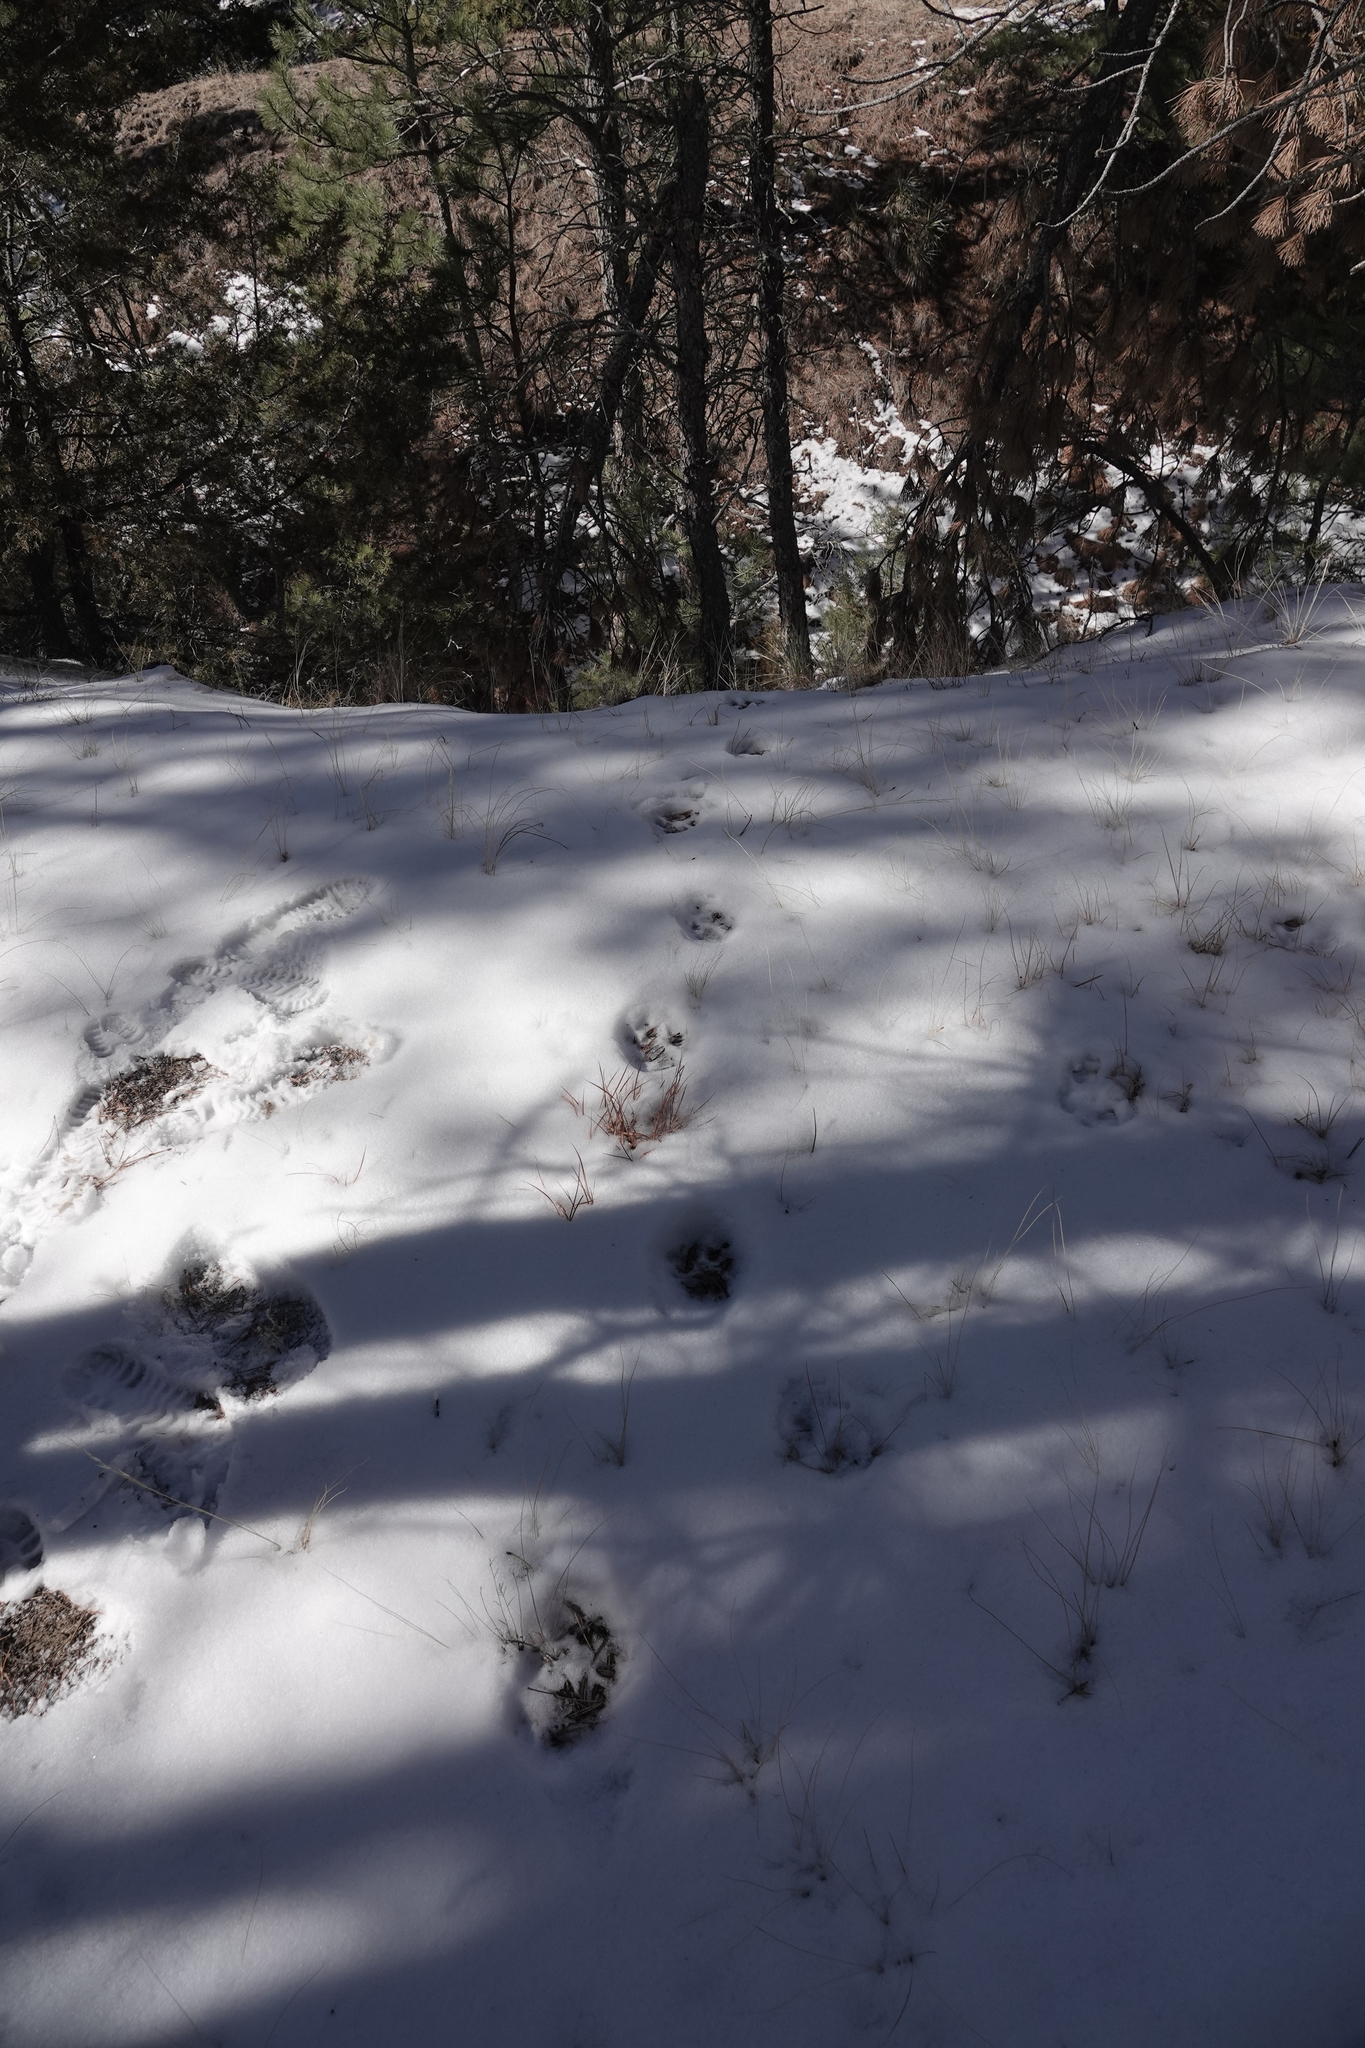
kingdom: Animalia
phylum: Chordata
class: Mammalia
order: Carnivora
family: Felidae
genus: Puma
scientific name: Puma concolor
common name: Puma
